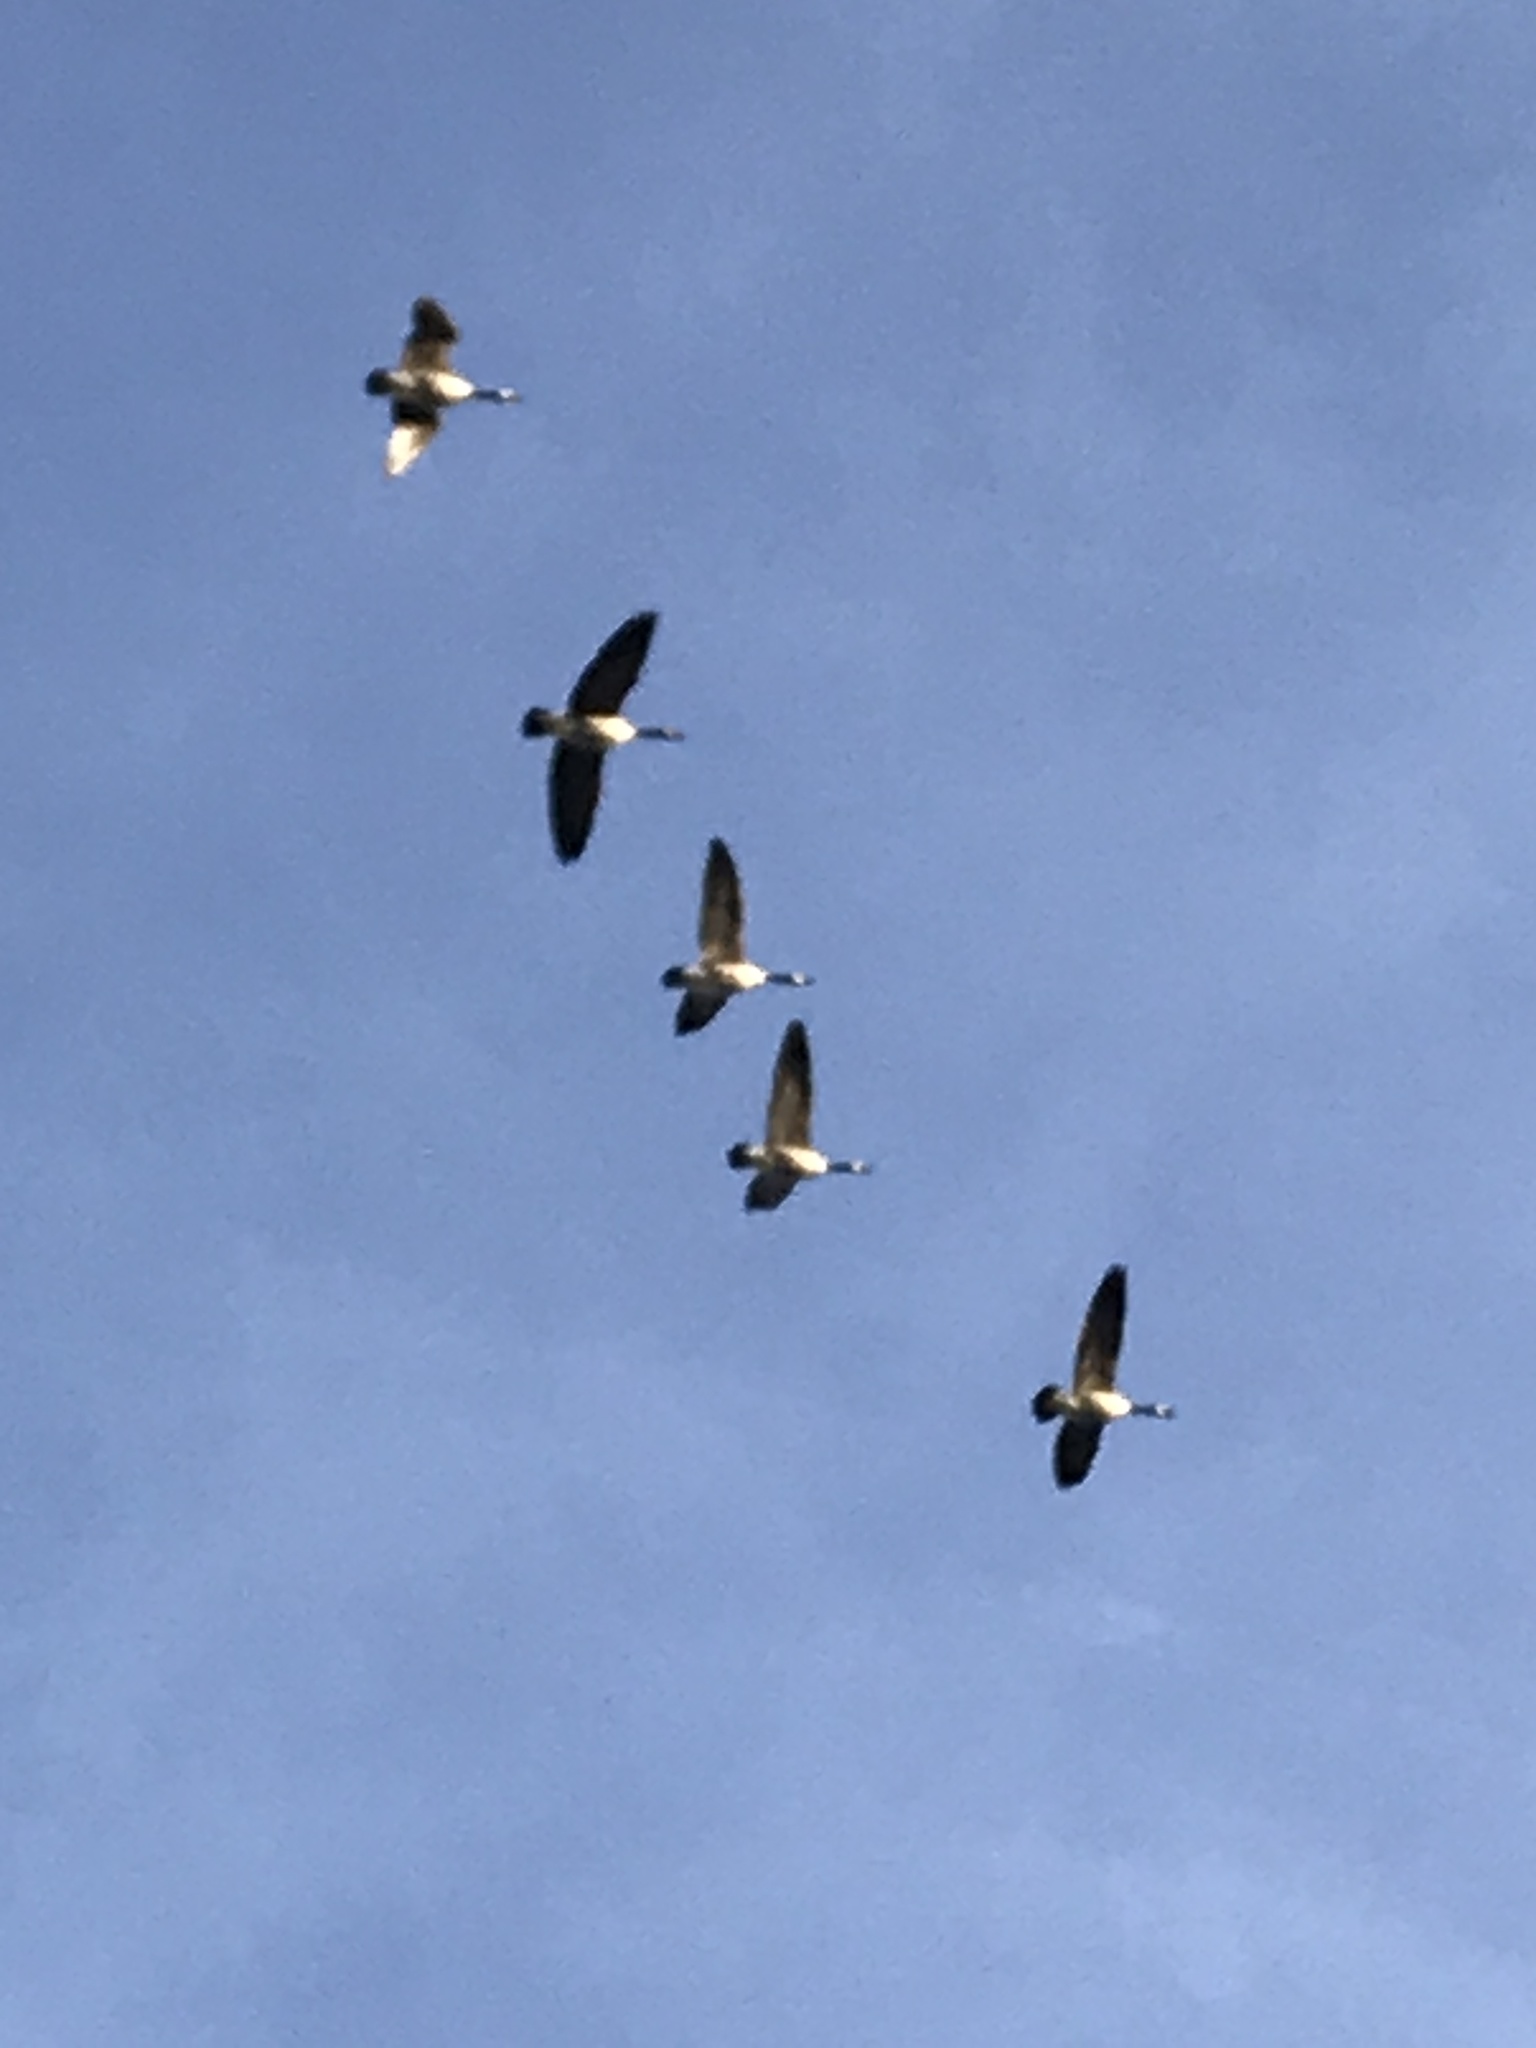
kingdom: Animalia
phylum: Chordata
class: Aves
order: Anseriformes
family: Anatidae
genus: Branta
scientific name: Branta canadensis
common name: Canada goose
